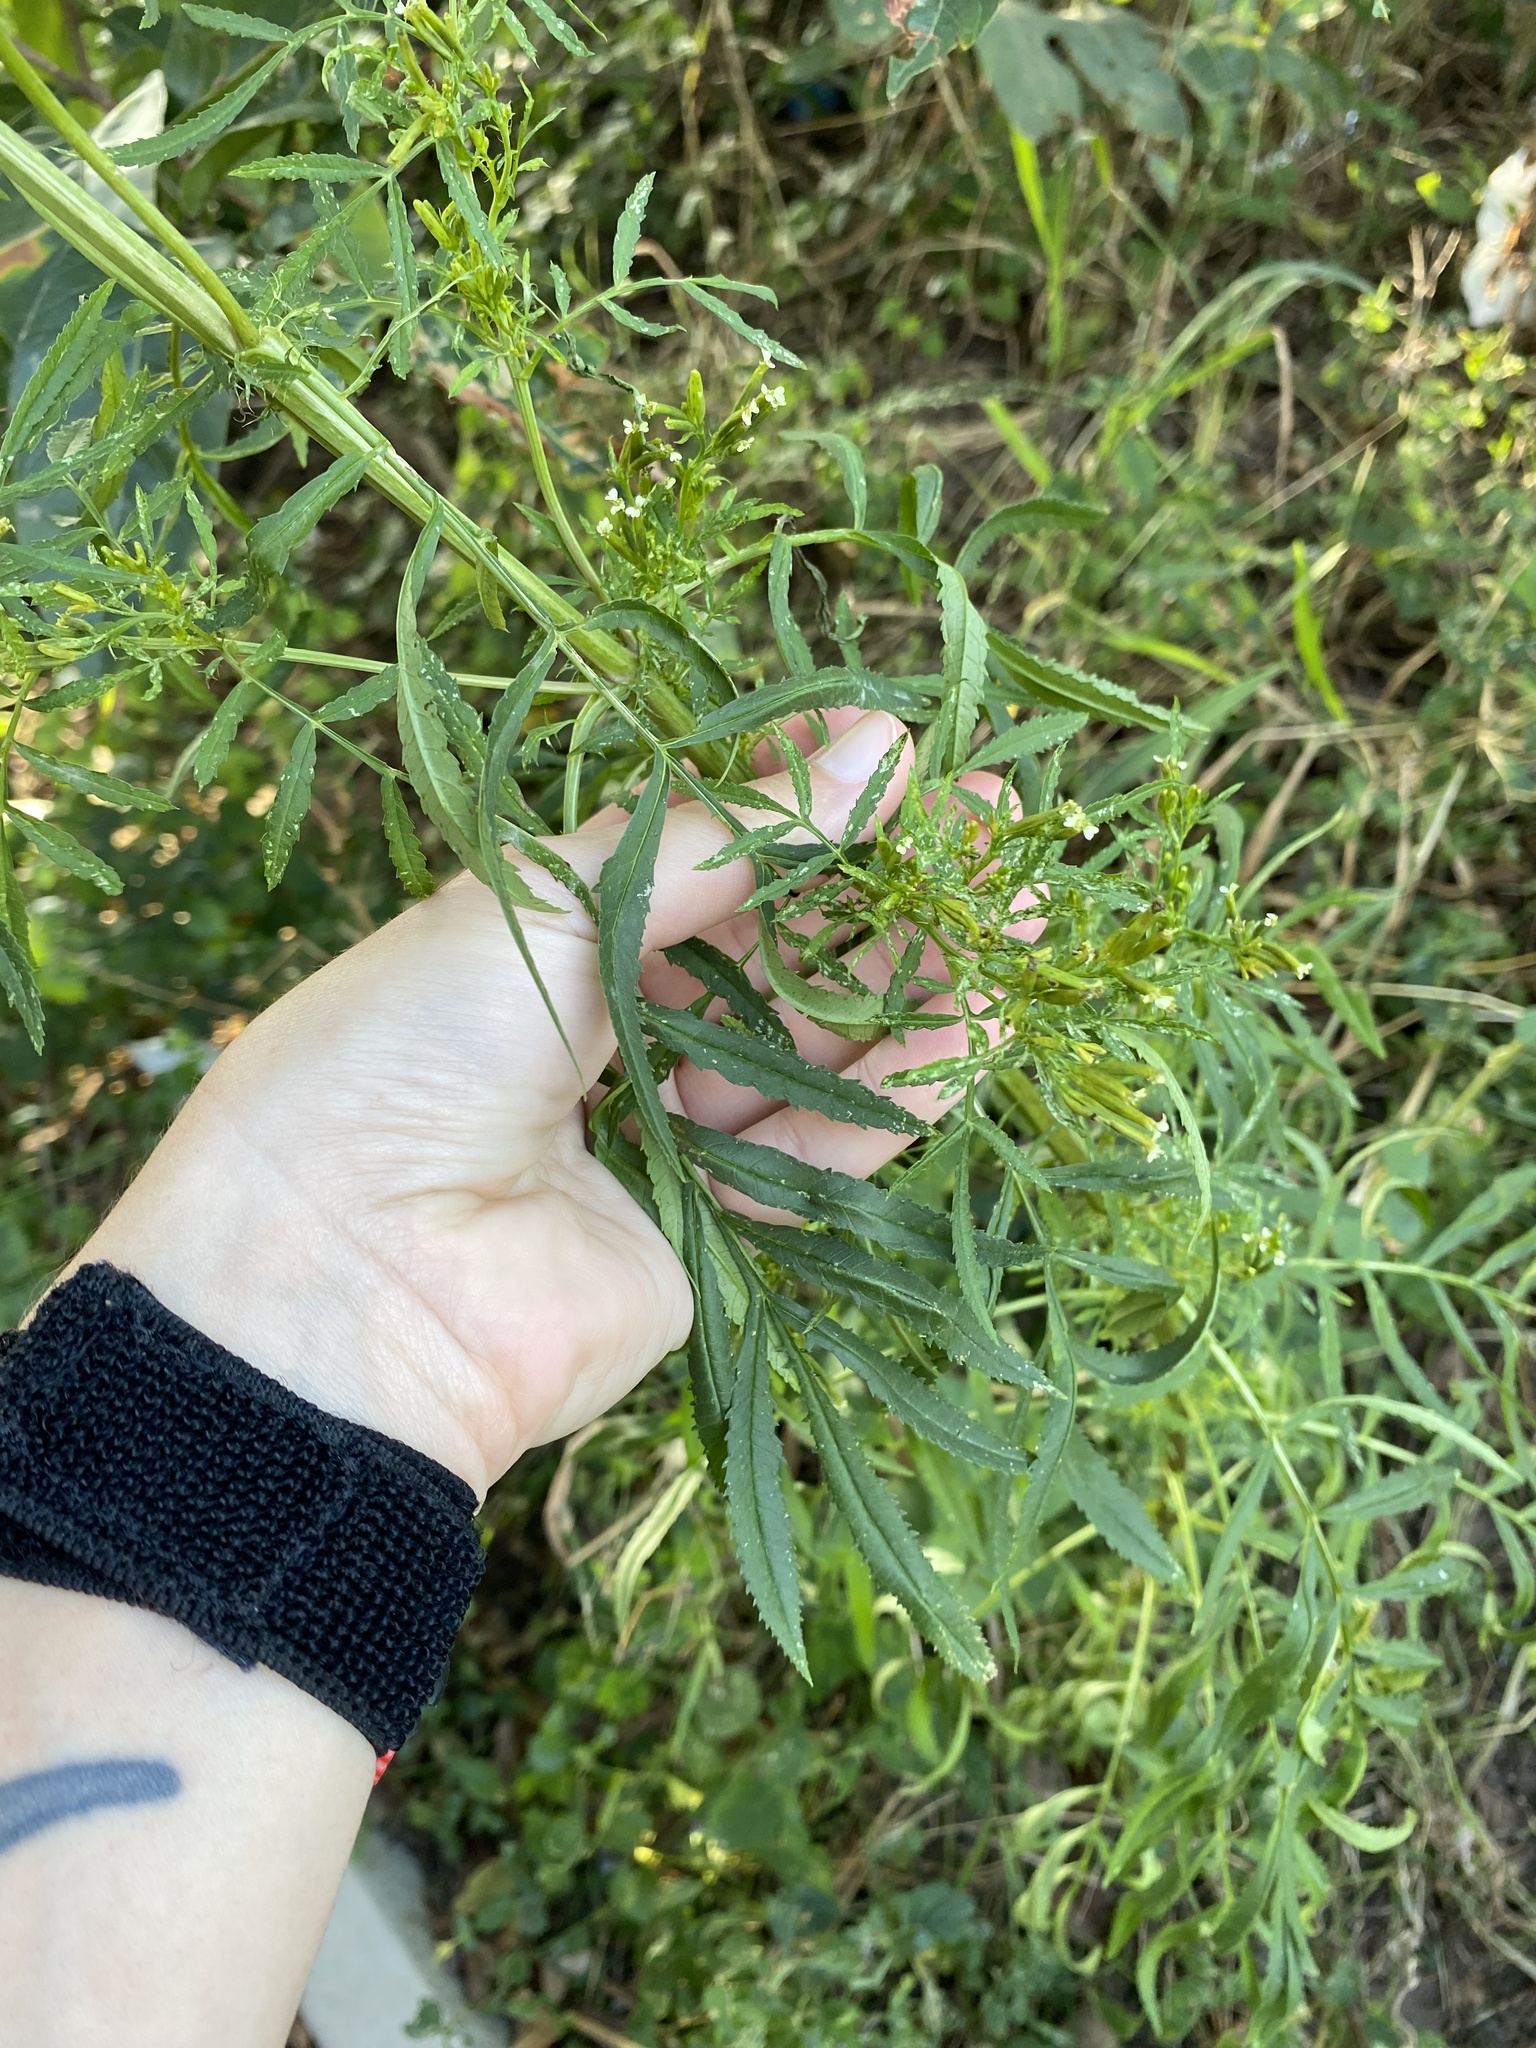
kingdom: Plantae
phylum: Tracheophyta
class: Magnoliopsida
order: Asterales
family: Asteraceae
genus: Tagetes
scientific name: Tagetes minuta
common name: Muster john henry
